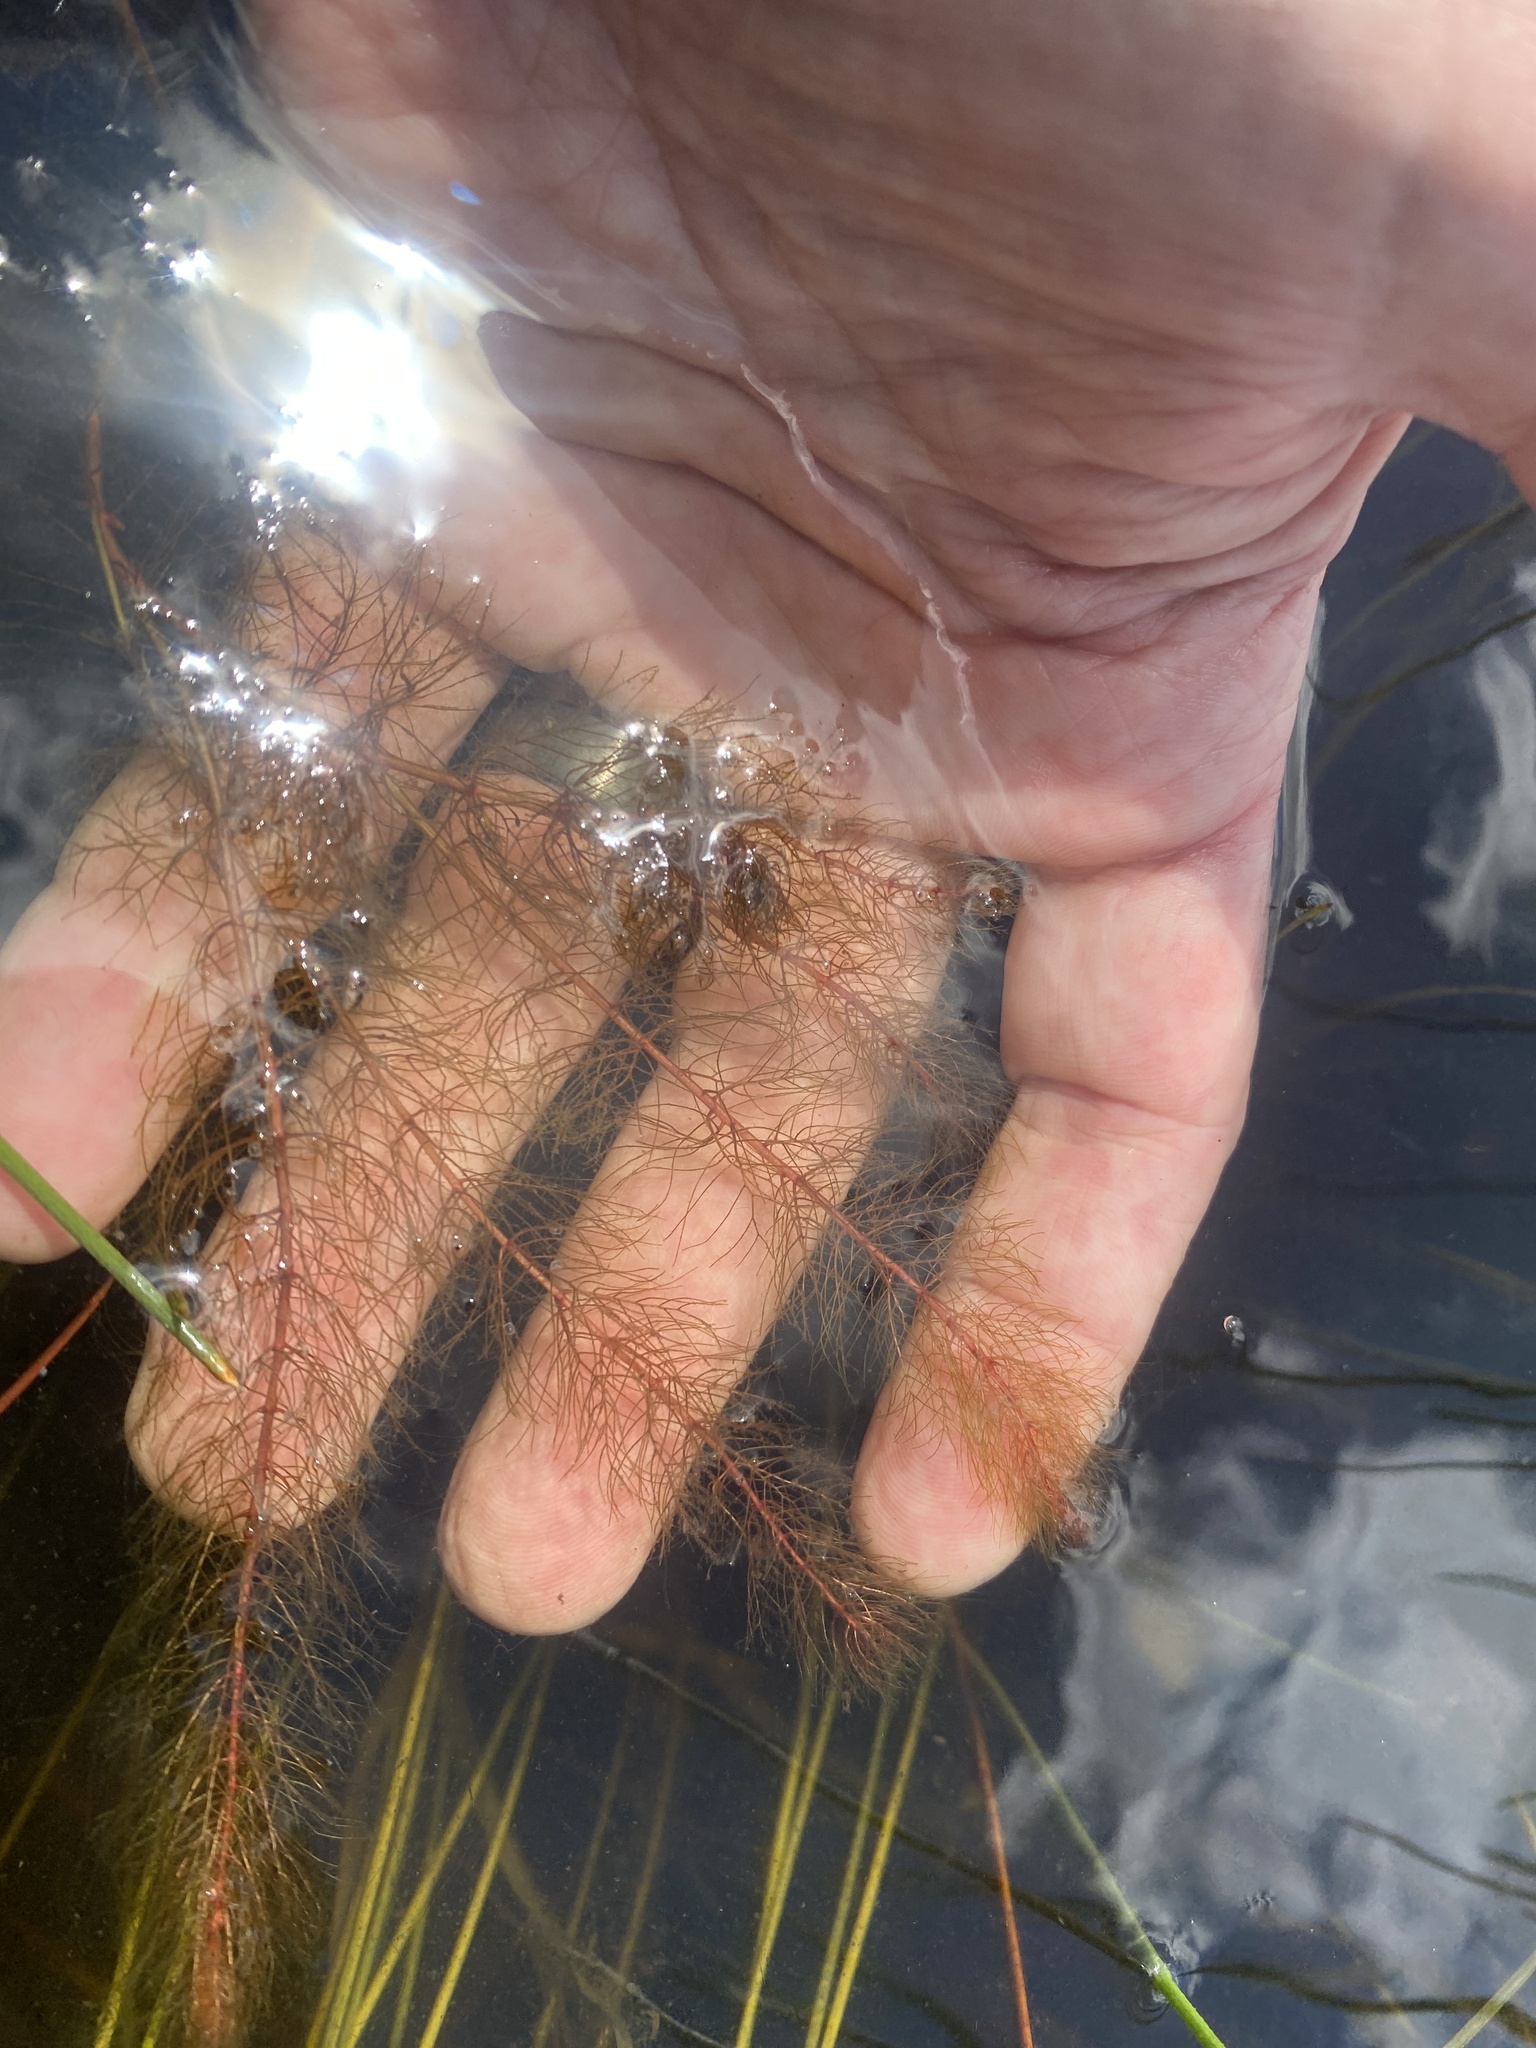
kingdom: Plantae
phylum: Tracheophyta
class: Magnoliopsida
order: Saxifragales
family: Haloragaceae
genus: Myriophyllum
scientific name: Myriophyllum alterniflorum
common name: Alternate water-milfoil
